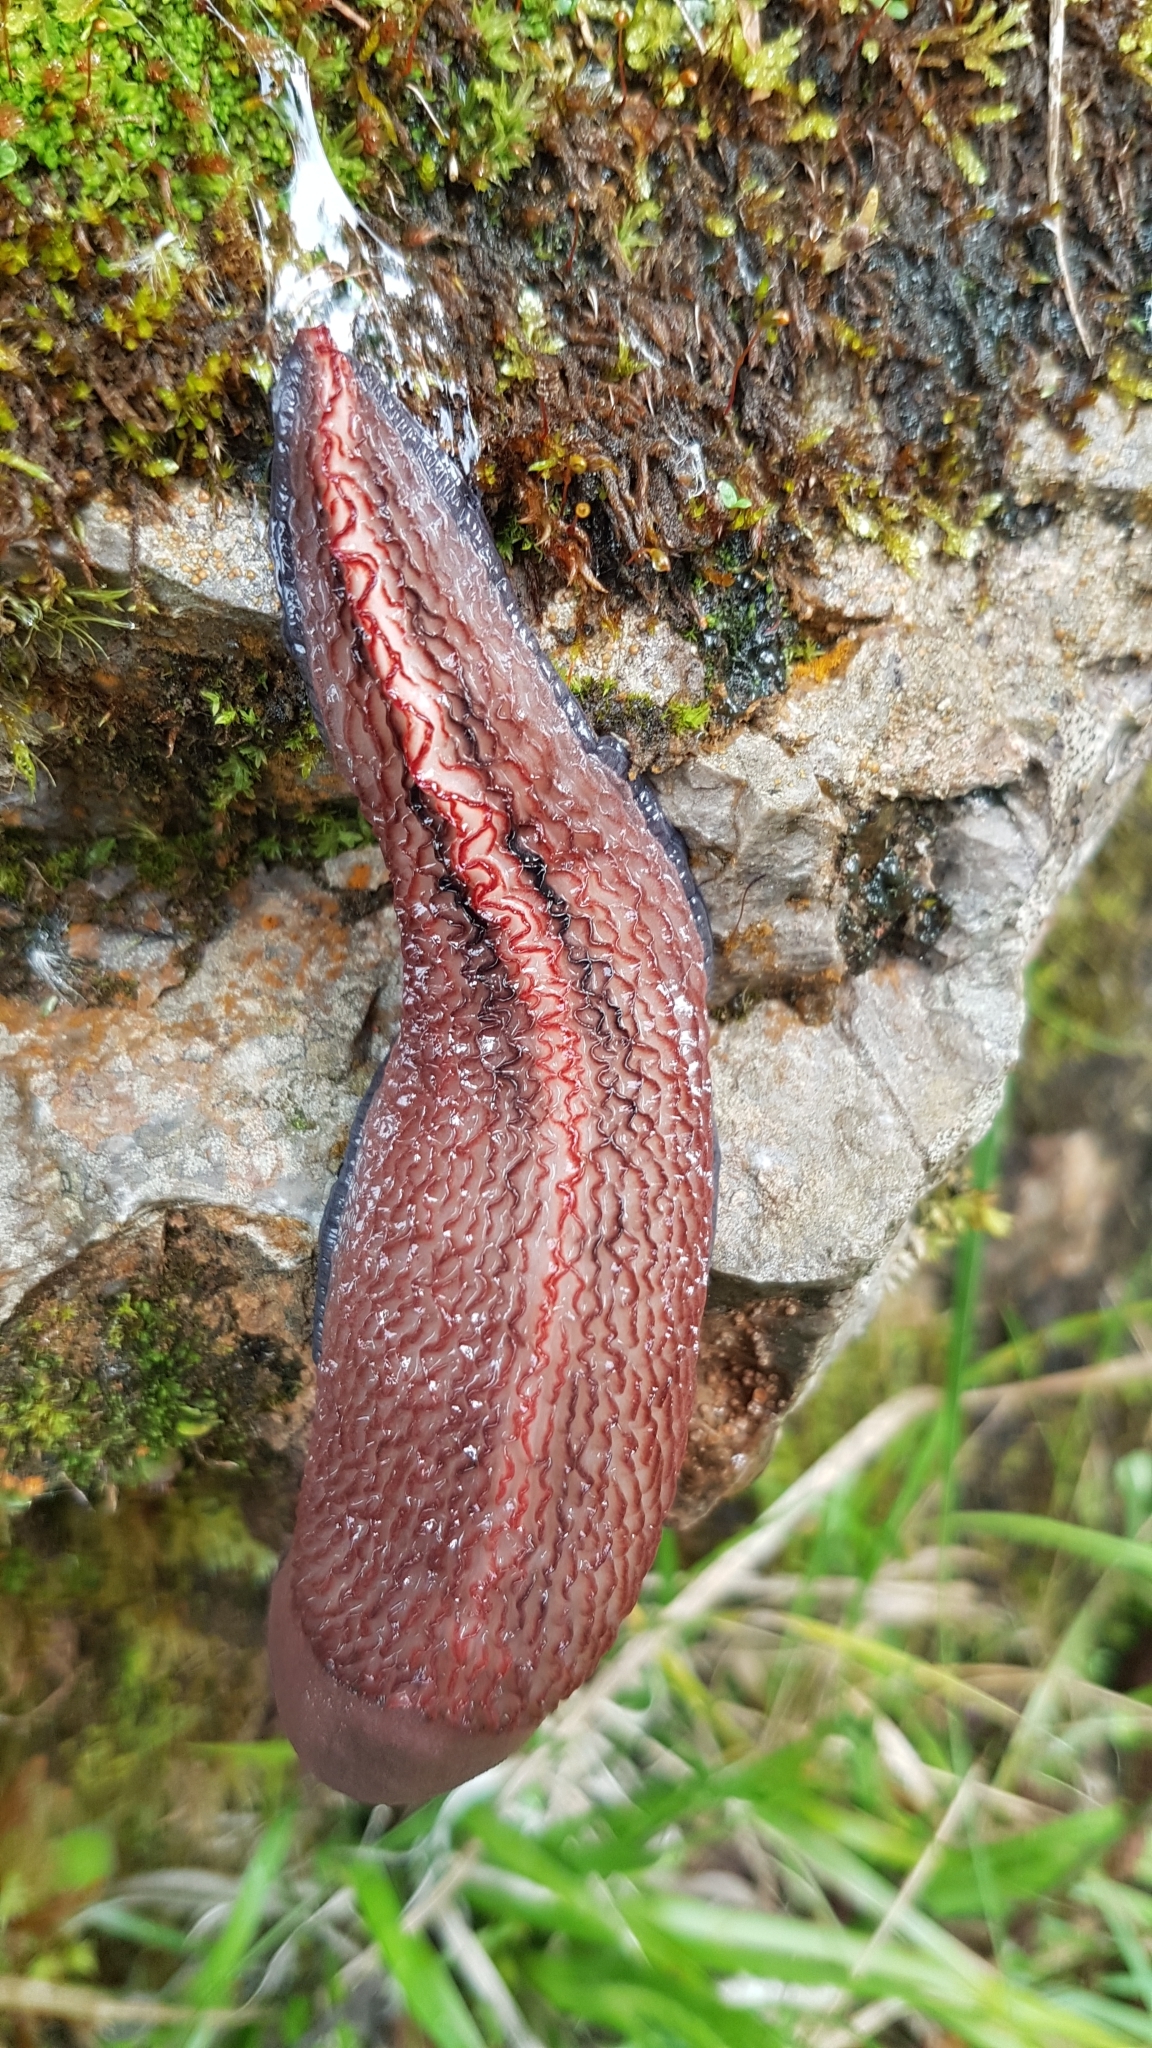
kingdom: Animalia
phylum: Mollusca
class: Gastropoda
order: Stylommatophora
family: Limacidae
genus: Limax
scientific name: Limax dacampi
